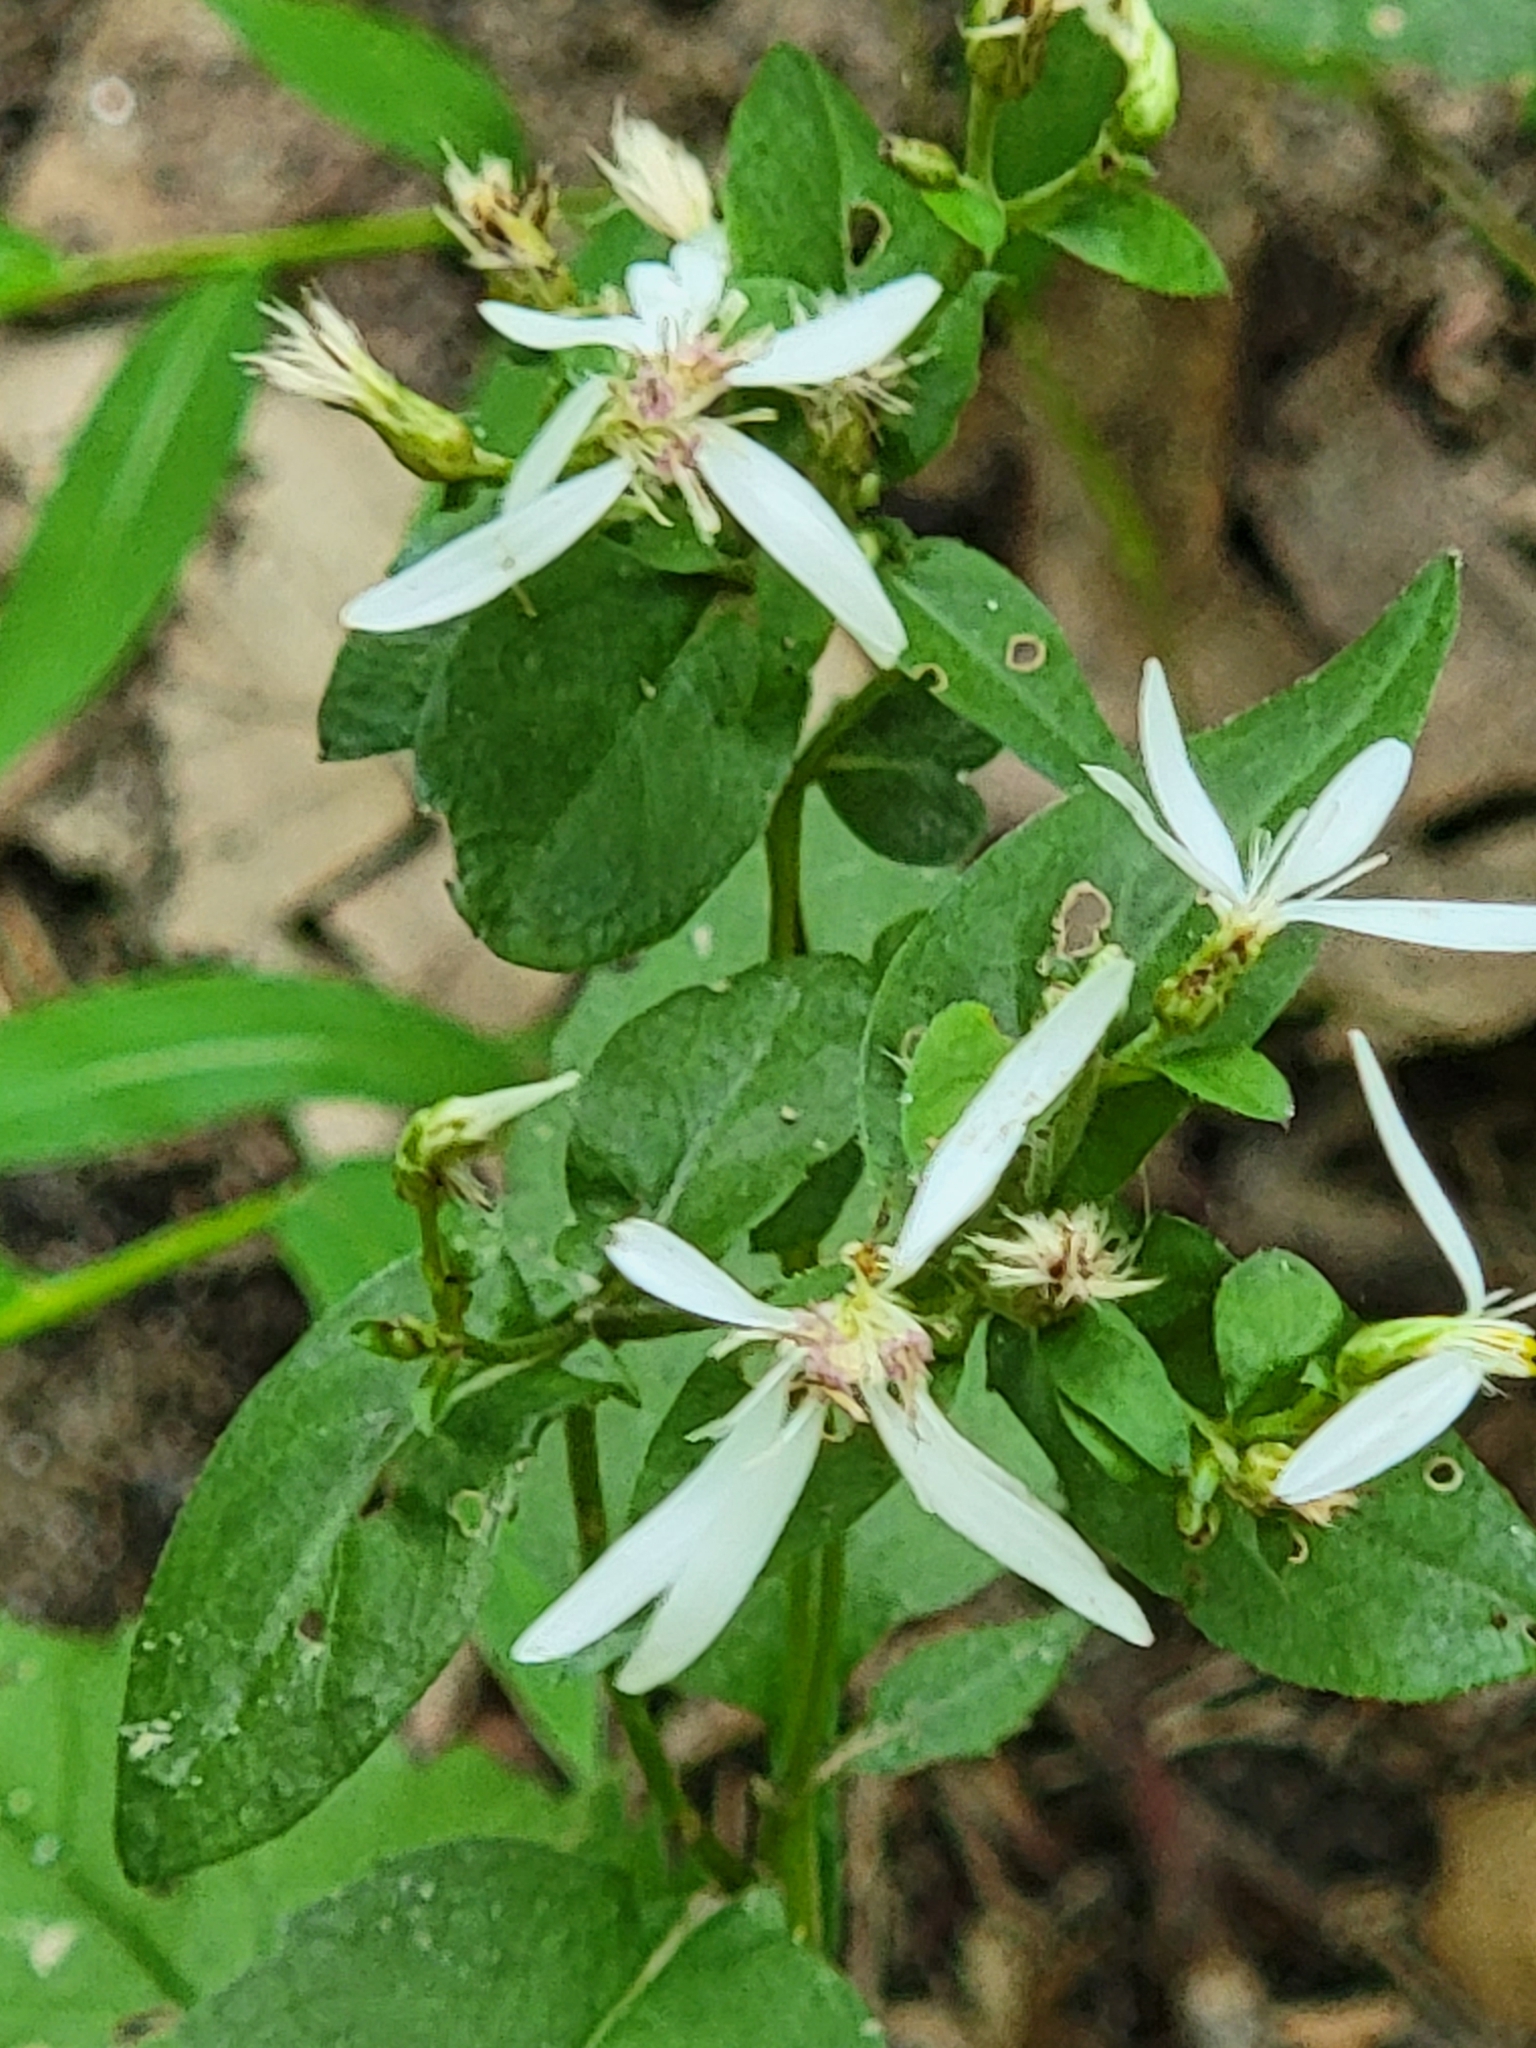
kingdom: Plantae
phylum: Tracheophyta
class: Magnoliopsida
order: Asterales
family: Asteraceae
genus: Eurybia
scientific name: Eurybia divaricata
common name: White wood aster
